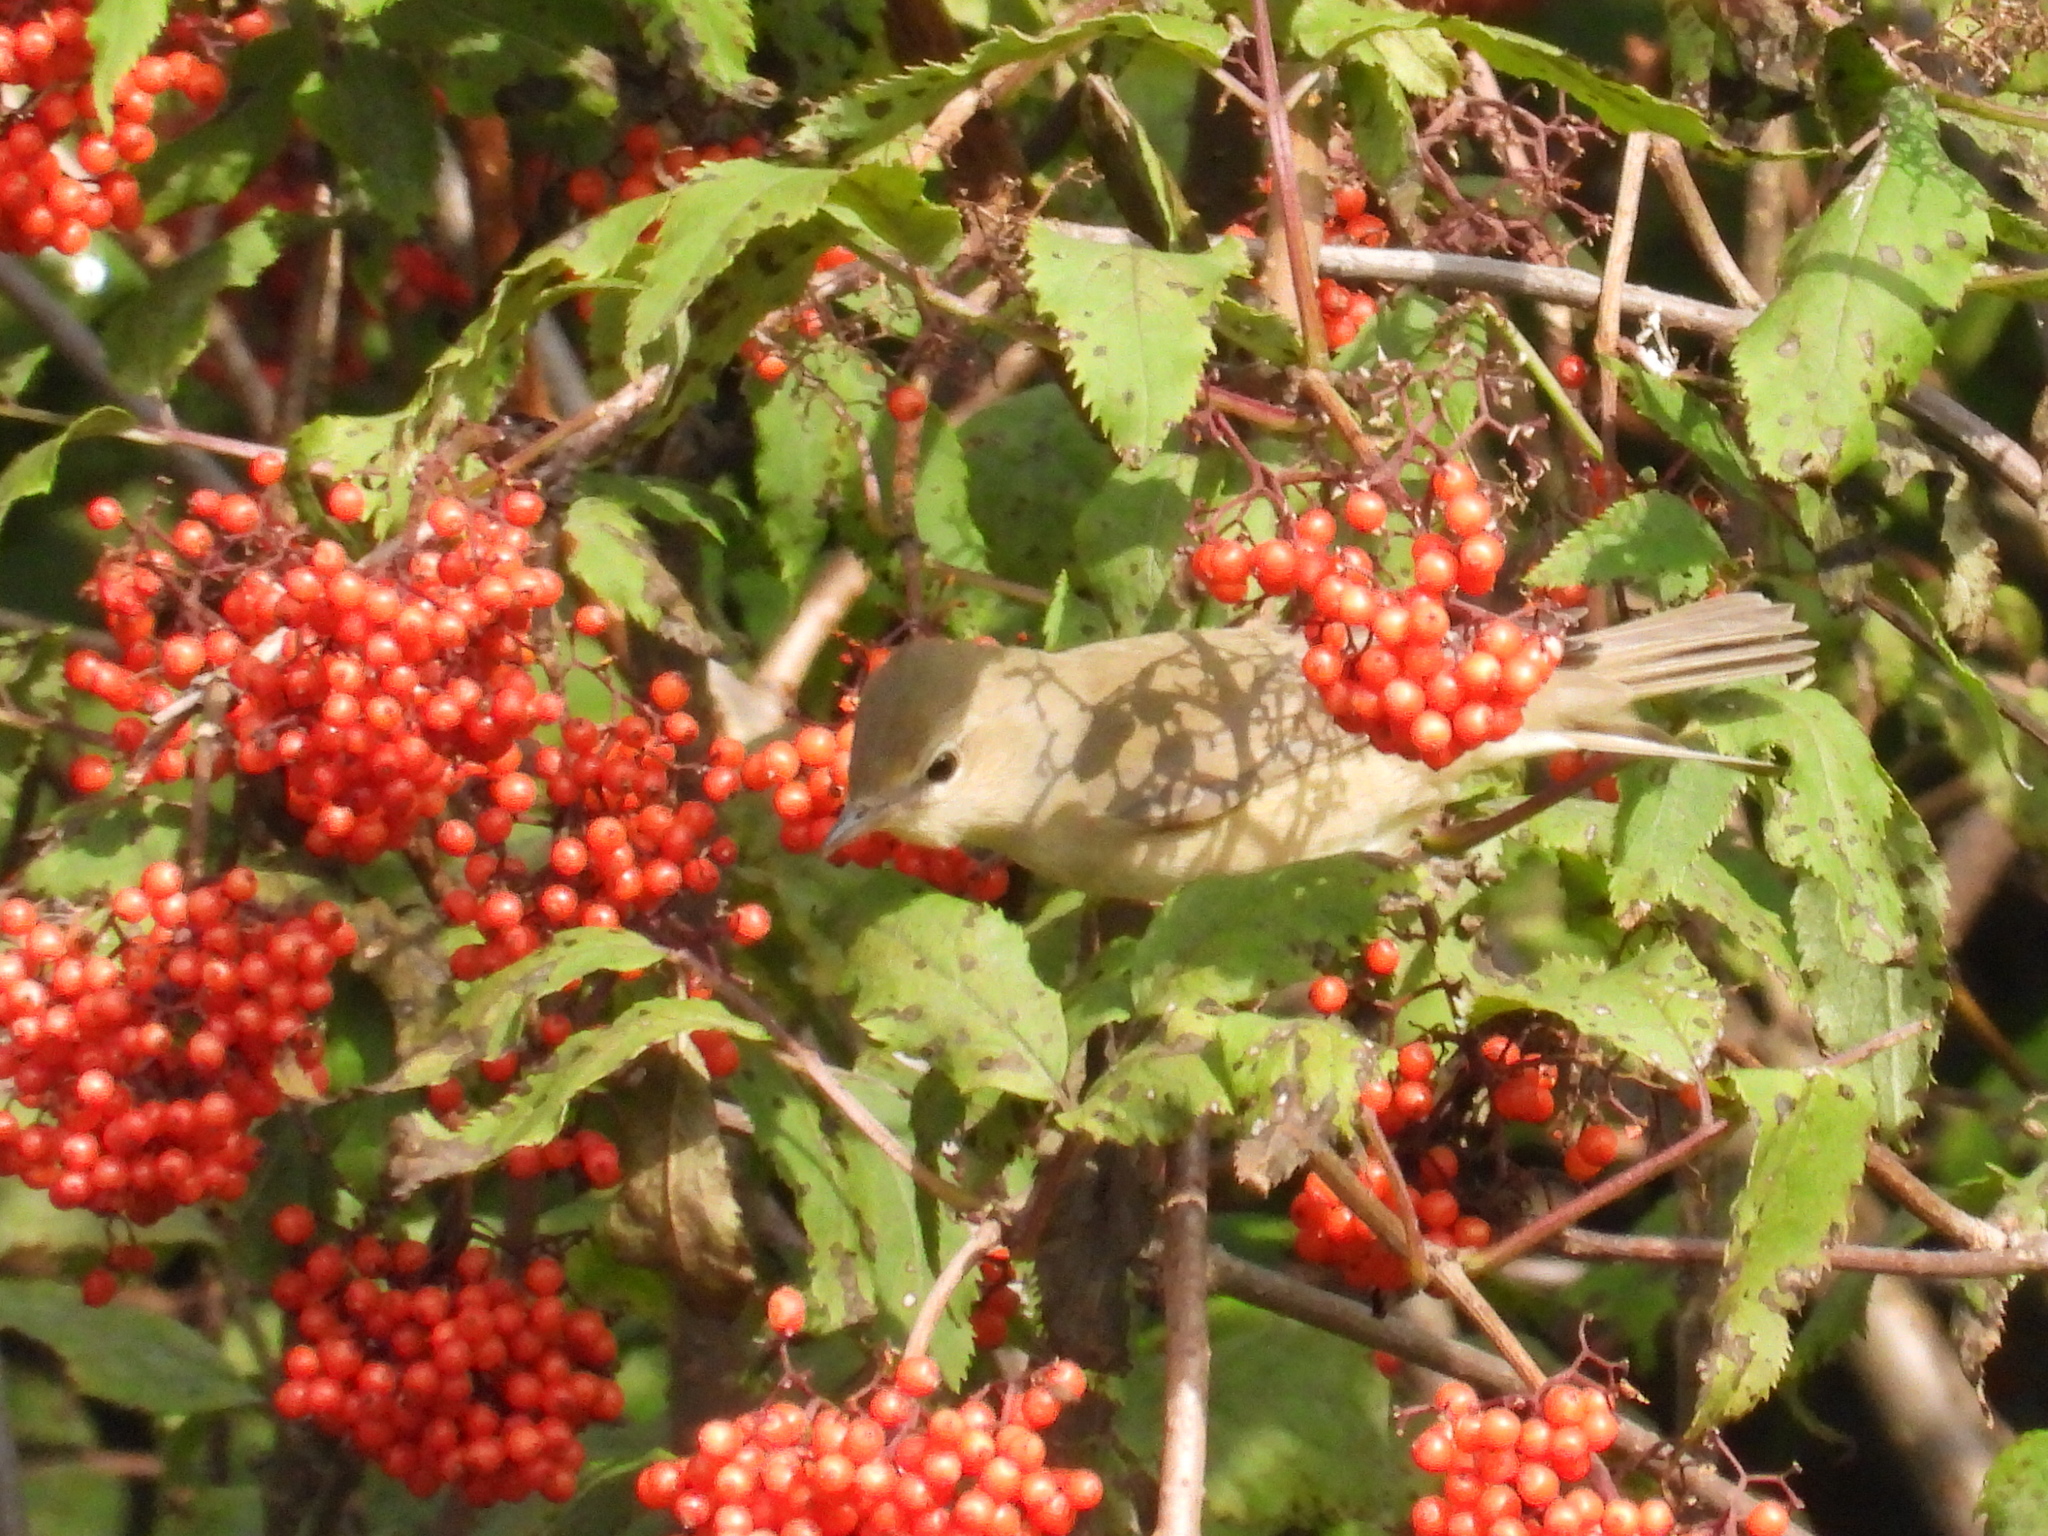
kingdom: Animalia
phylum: Chordata
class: Aves
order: Passeriformes
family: Sylviidae
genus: Sylvia
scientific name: Sylvia borin
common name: Garden warbler
